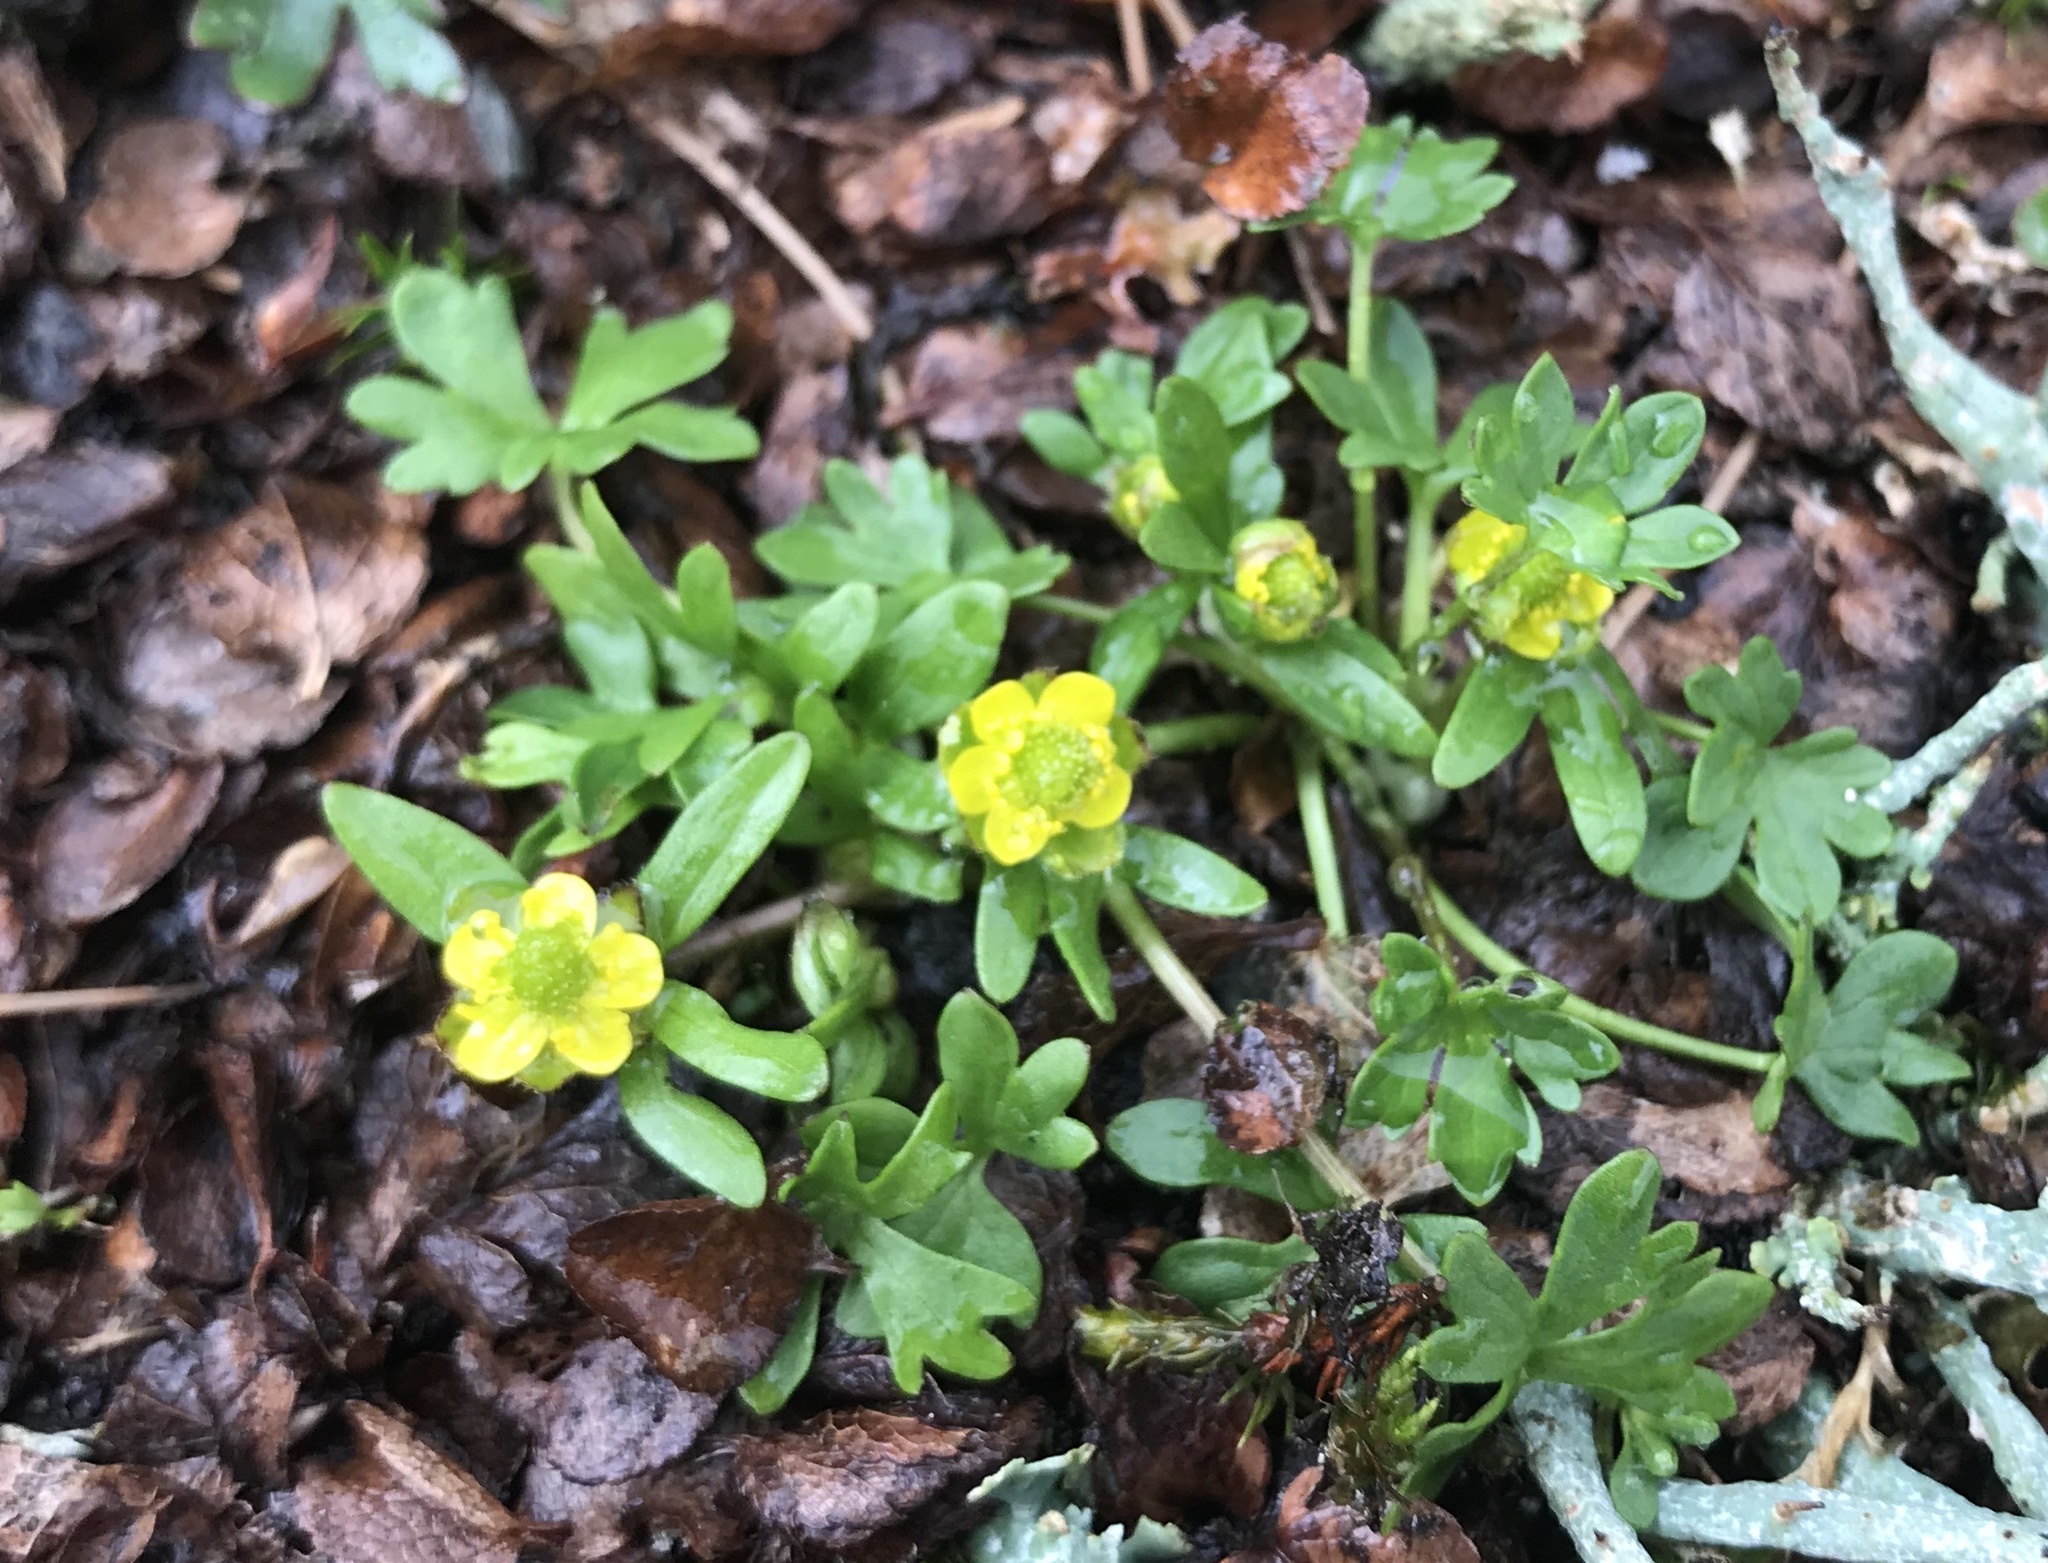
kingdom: Plantae
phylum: Tracheophyta
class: Magnoliopsida
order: Ranunculales
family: Ranunculaceae
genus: Ranunculus
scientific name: Ranunculus pygmaeus
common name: Dwarf buttercup
